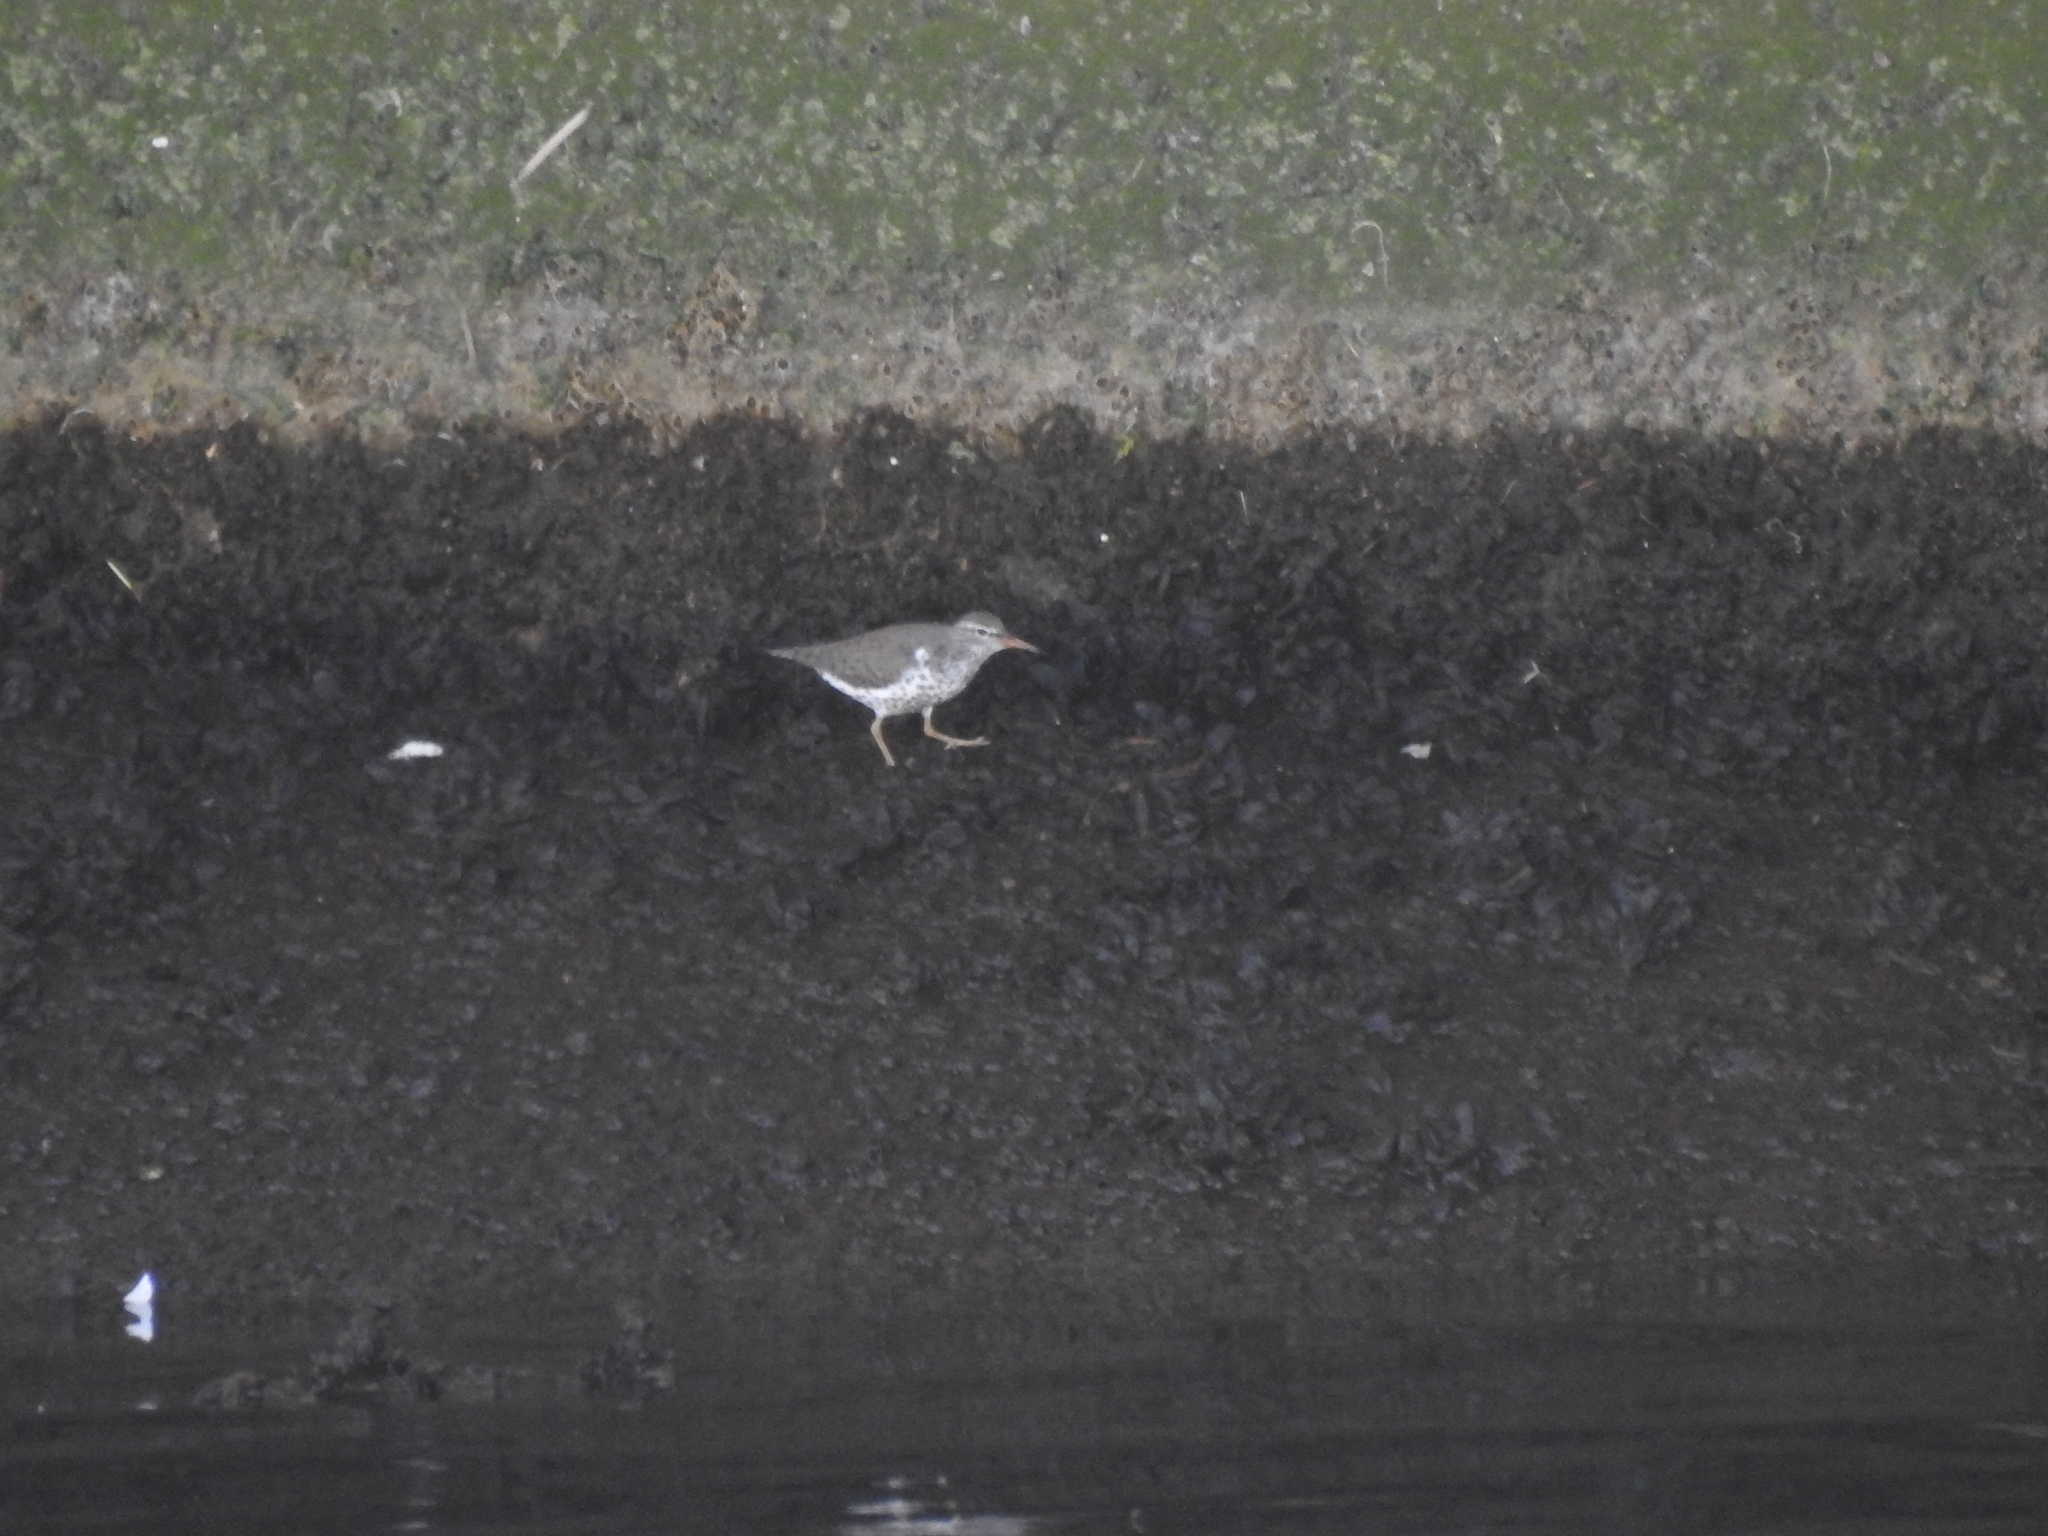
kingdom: Animalia
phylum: Chordata
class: Aves
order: Charadriiformes
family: Scolopacidae
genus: Actitis
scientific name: Actitis macularius
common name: Spotted sandpiper
